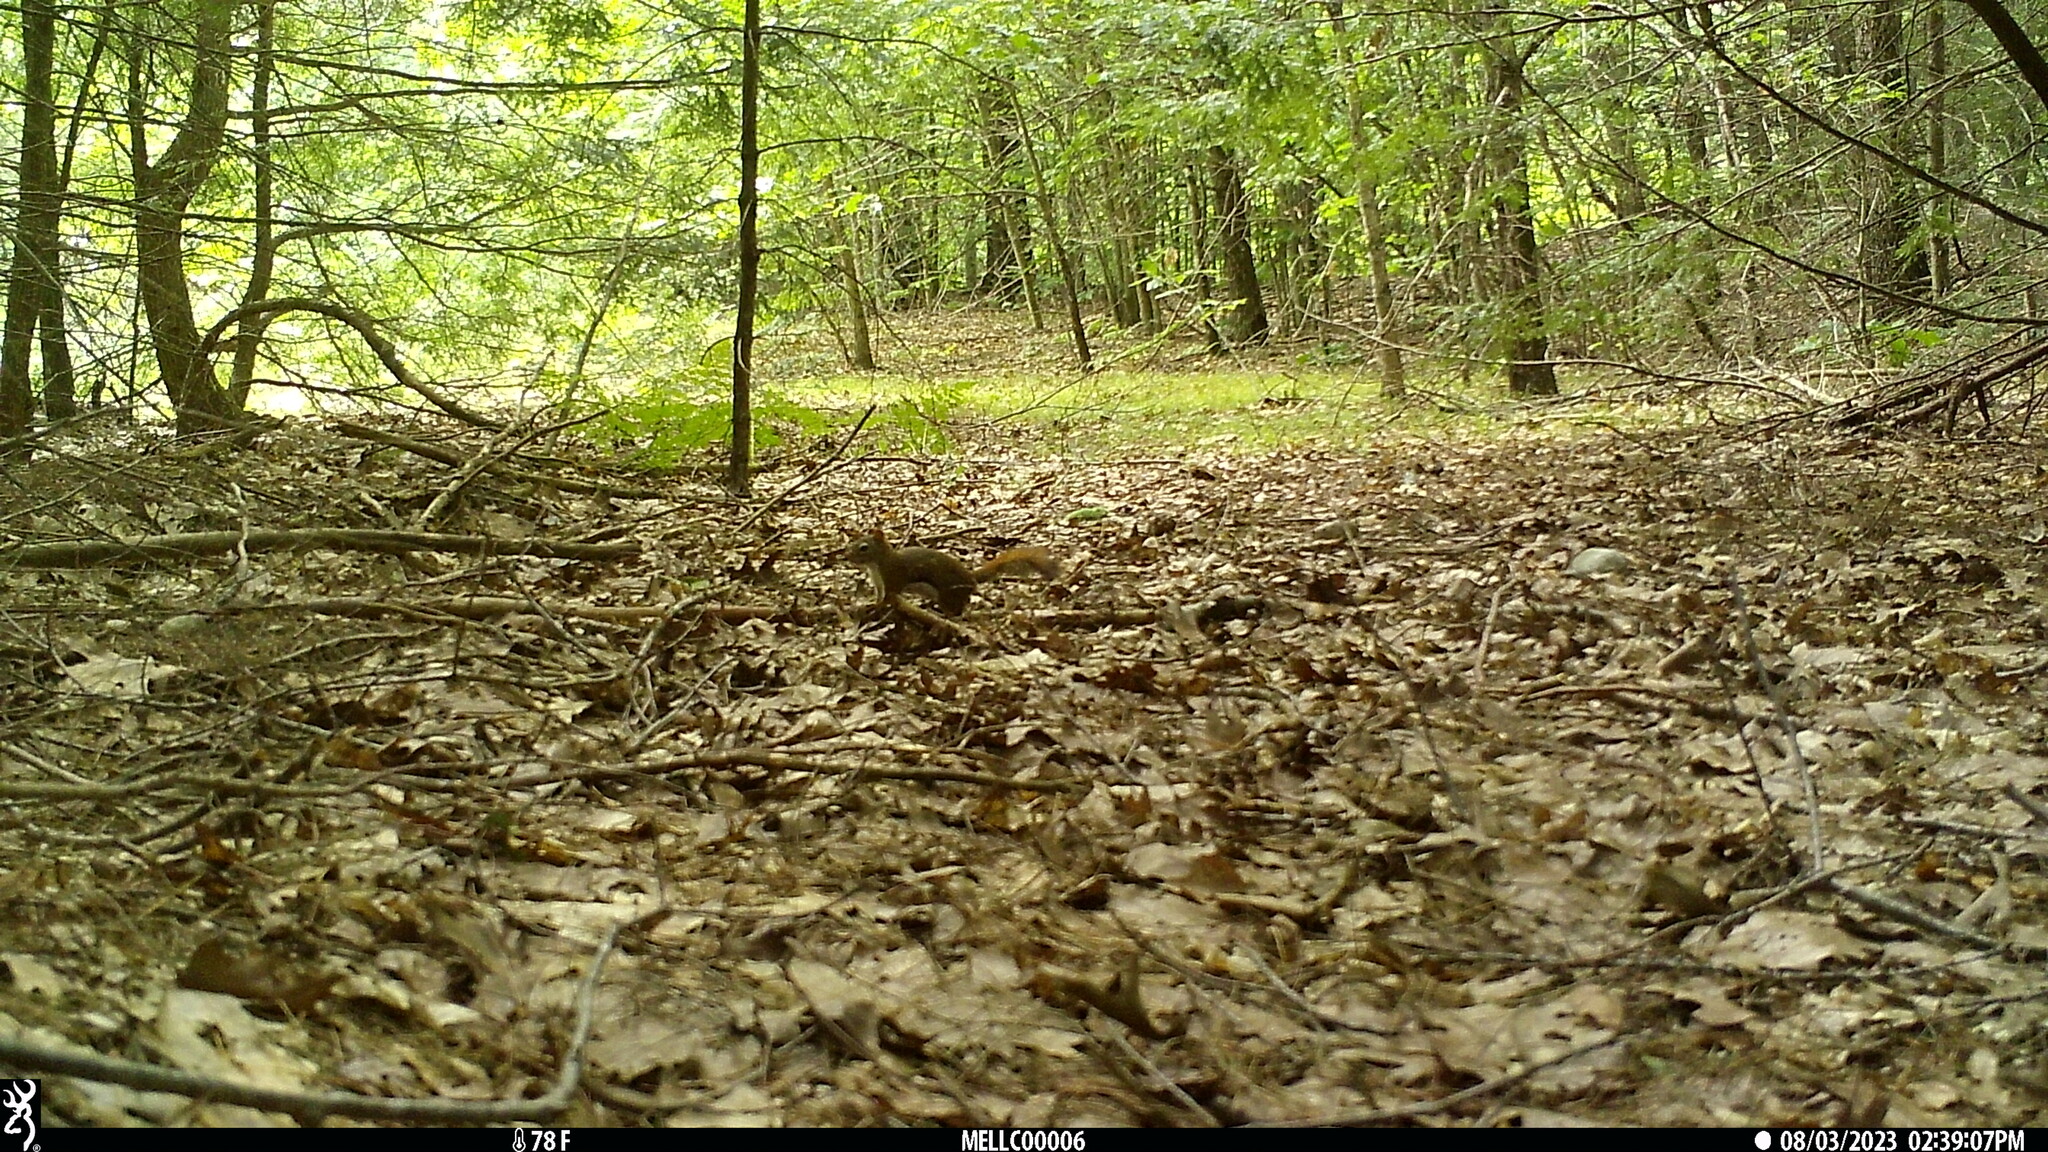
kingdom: Animalia
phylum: Chordata
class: Mammalia
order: Rodentia
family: Sciuridae
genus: Tamiasciurus
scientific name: Tamiasciurus hudsonicus
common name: Red squirrel
